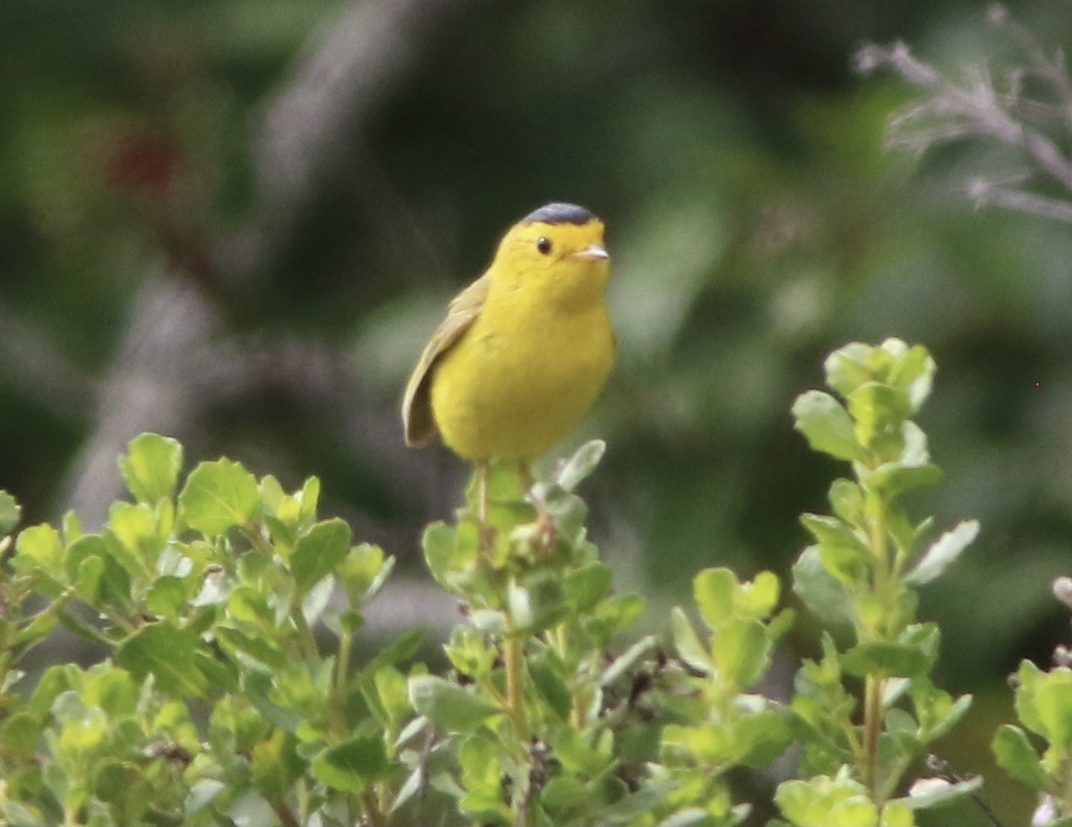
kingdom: Animalia
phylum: Chordata
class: Aves
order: Passeriformes
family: Parulidae
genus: Cardellina
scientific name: Cardellina pusilla
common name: Wilson's warbler
